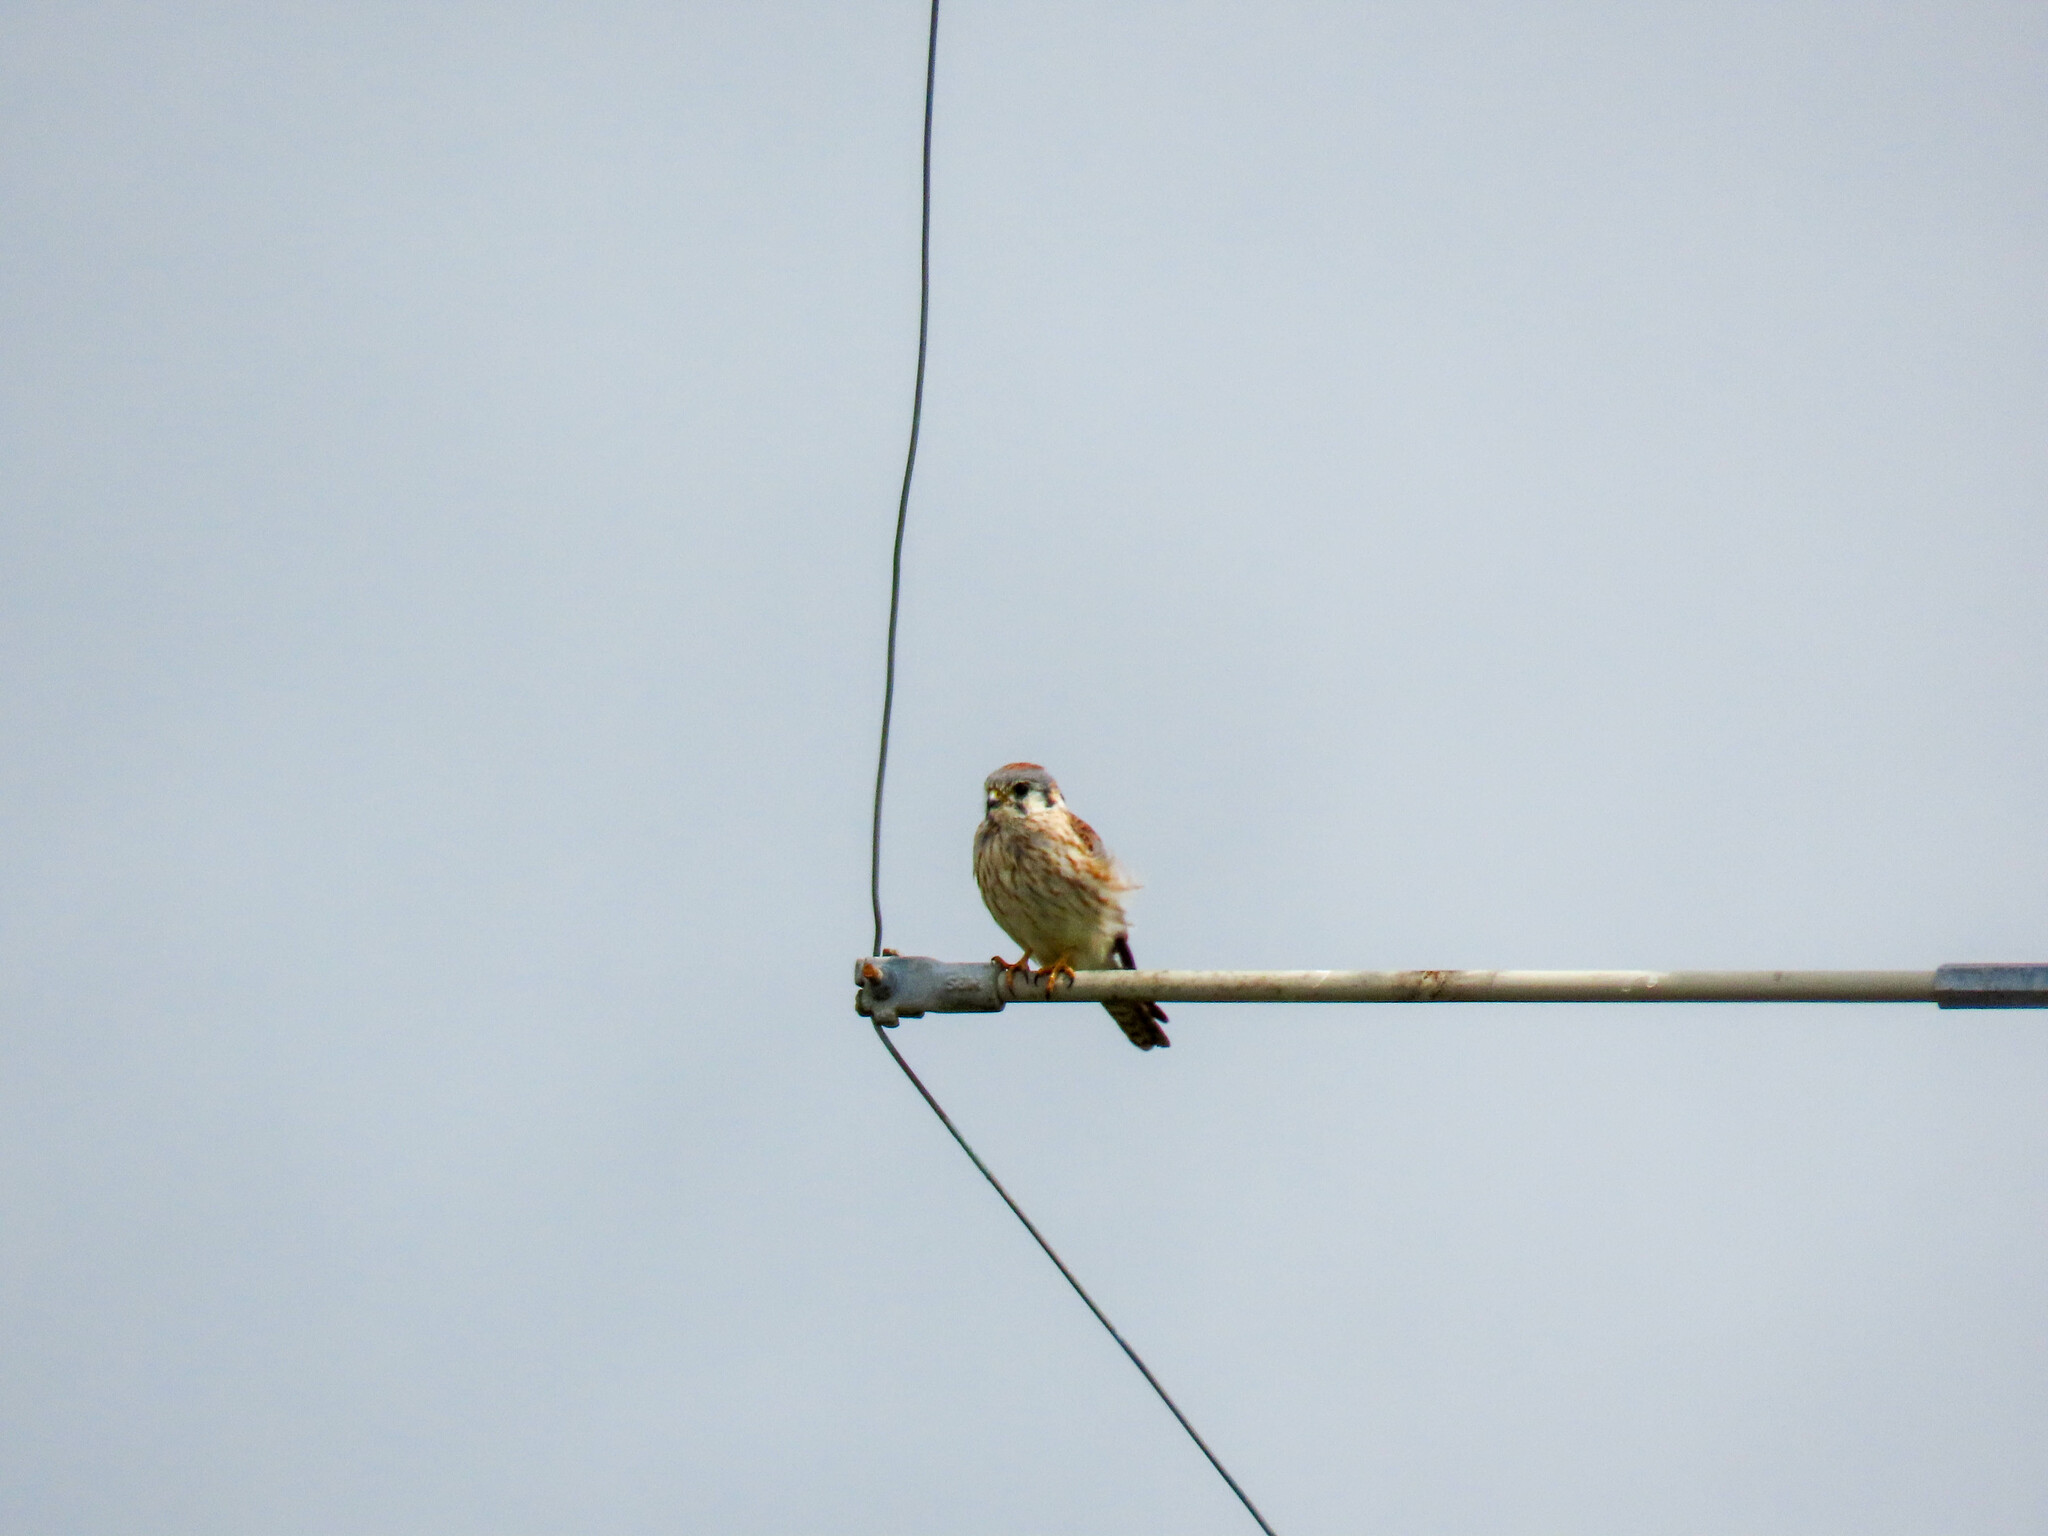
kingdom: Animalia
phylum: Chordata
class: Aves
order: Falconiformes
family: Falconidae
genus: Falco
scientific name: Falco sparverius
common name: American kestrel
